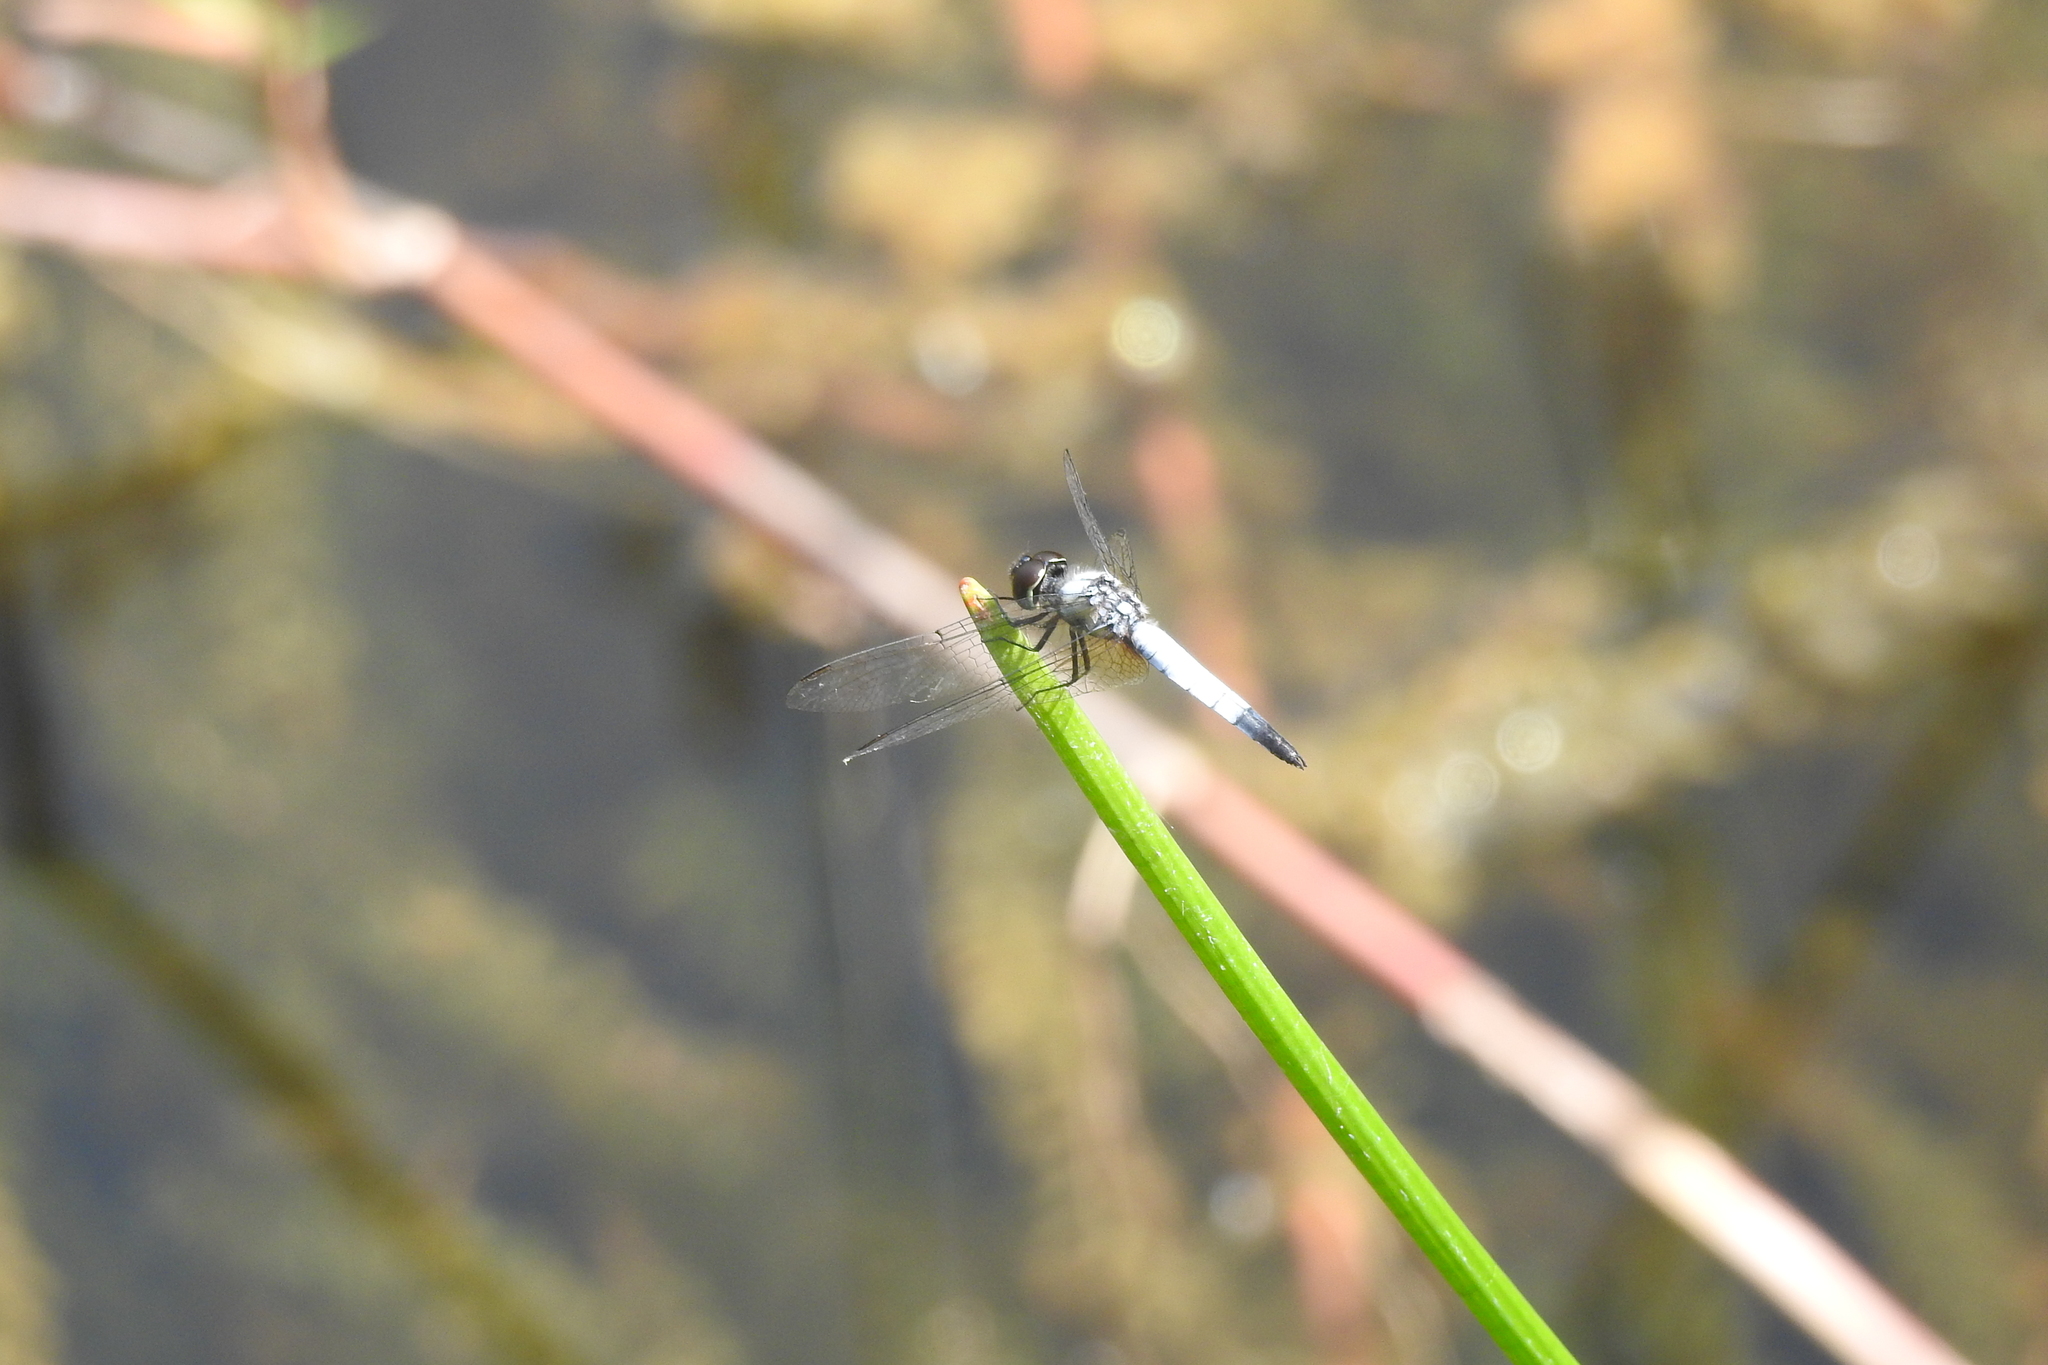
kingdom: Animalia
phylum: Arthropoda
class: Insecta
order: Odonata
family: Libellulidae
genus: Aethriamanta
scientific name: Aethriamanta gracilis
